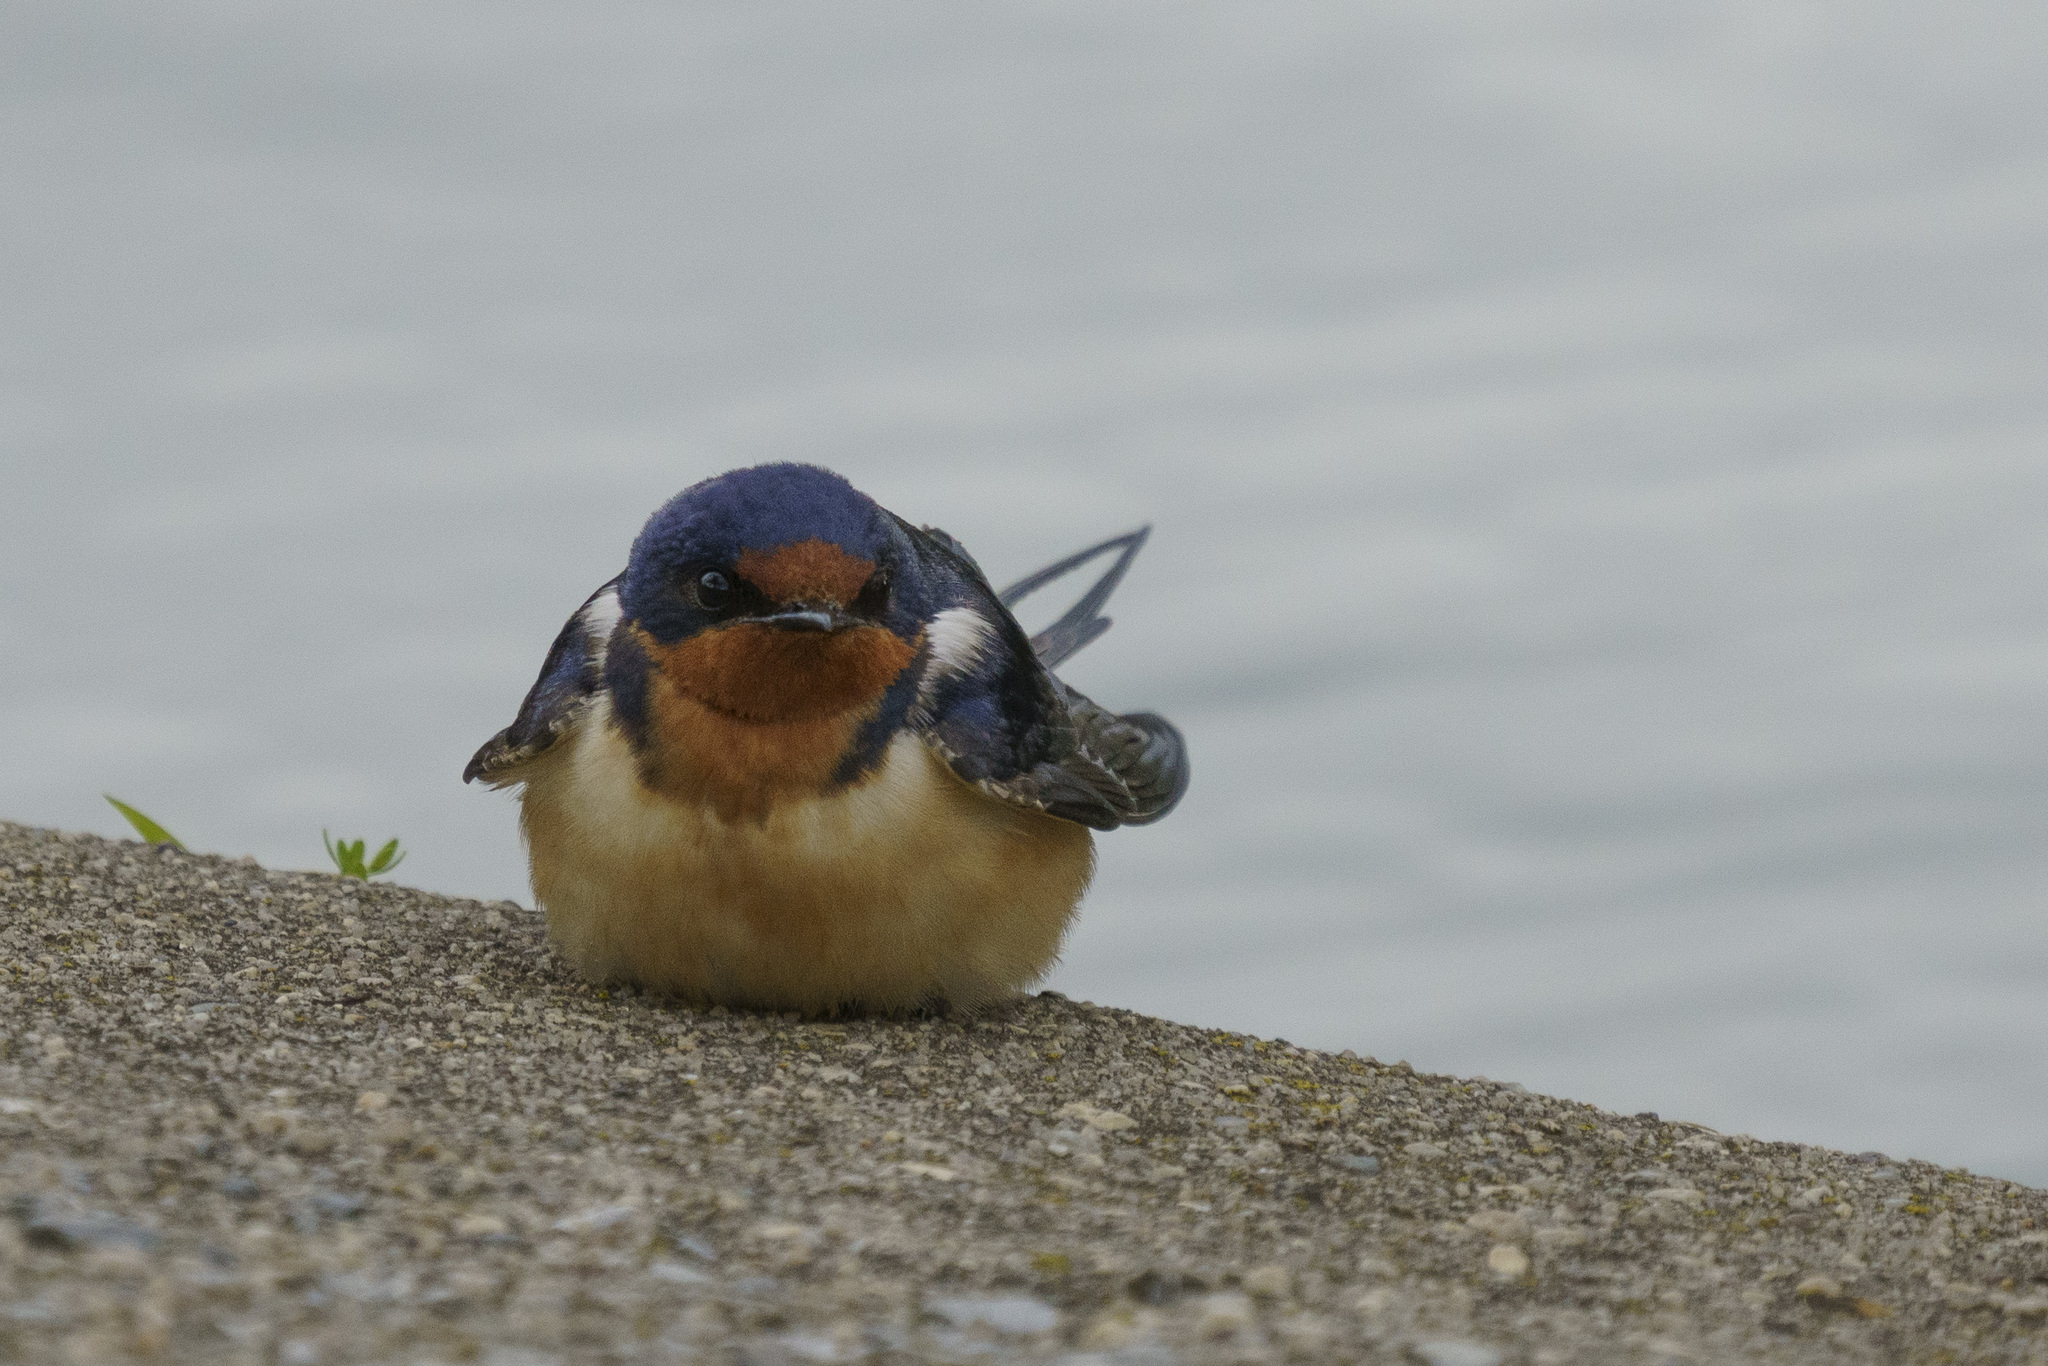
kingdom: Animalia
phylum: Chordata
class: Aves
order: Passeriformes
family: Hirundinidae
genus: Hirundo
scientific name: Hirundo rustica
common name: Barn swallow
